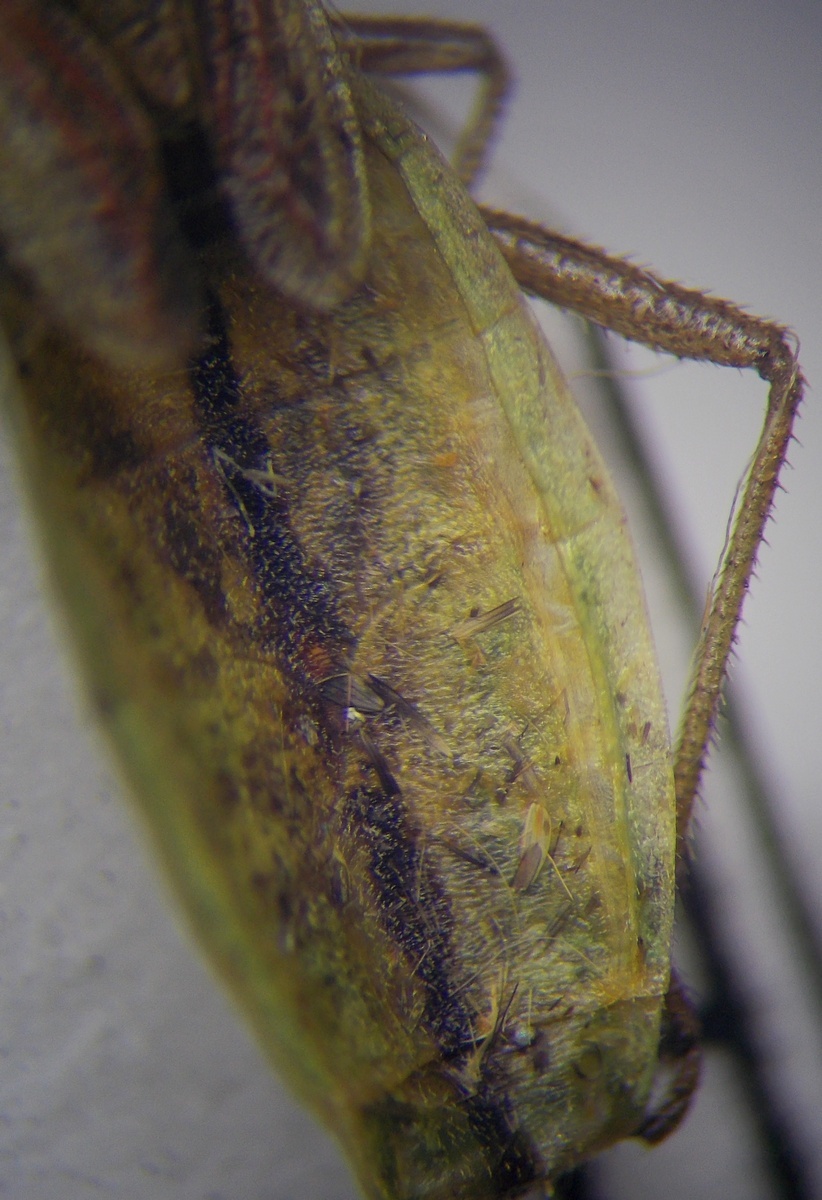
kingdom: Animalia
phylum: Arthropoda
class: Insecta
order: Hemiptera
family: Rhopalidae
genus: Myrmus
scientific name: Myrmus miriformis
